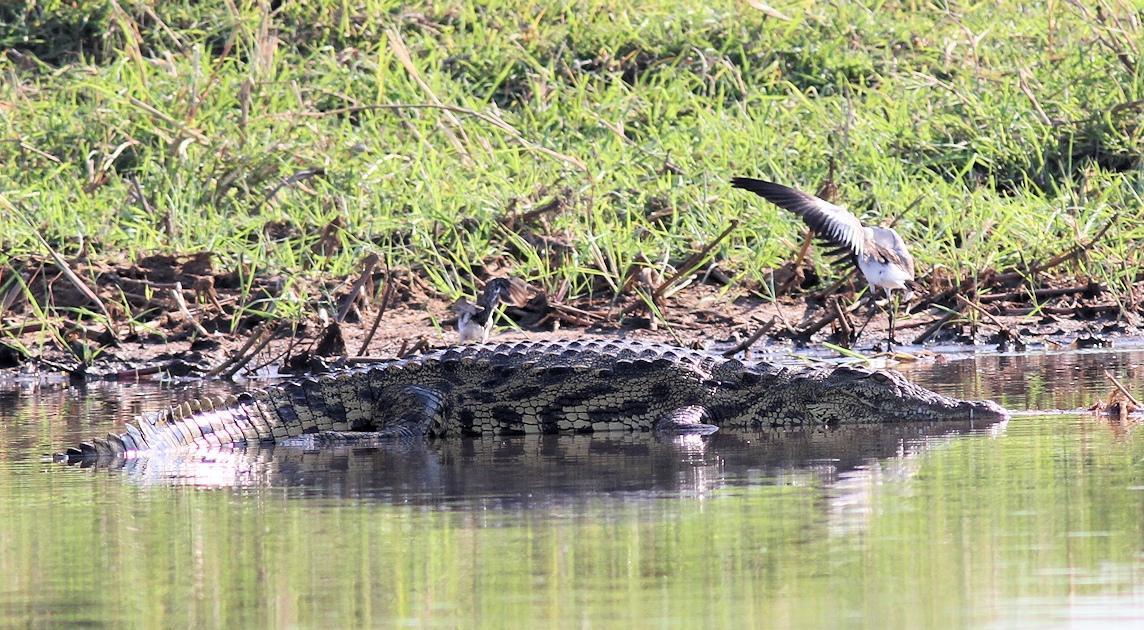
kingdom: Animalia
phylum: Chordata
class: Crocodylia
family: Crocodylidae
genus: Crocodylus
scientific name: Crocodylus niloticus
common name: Nile crocodile
